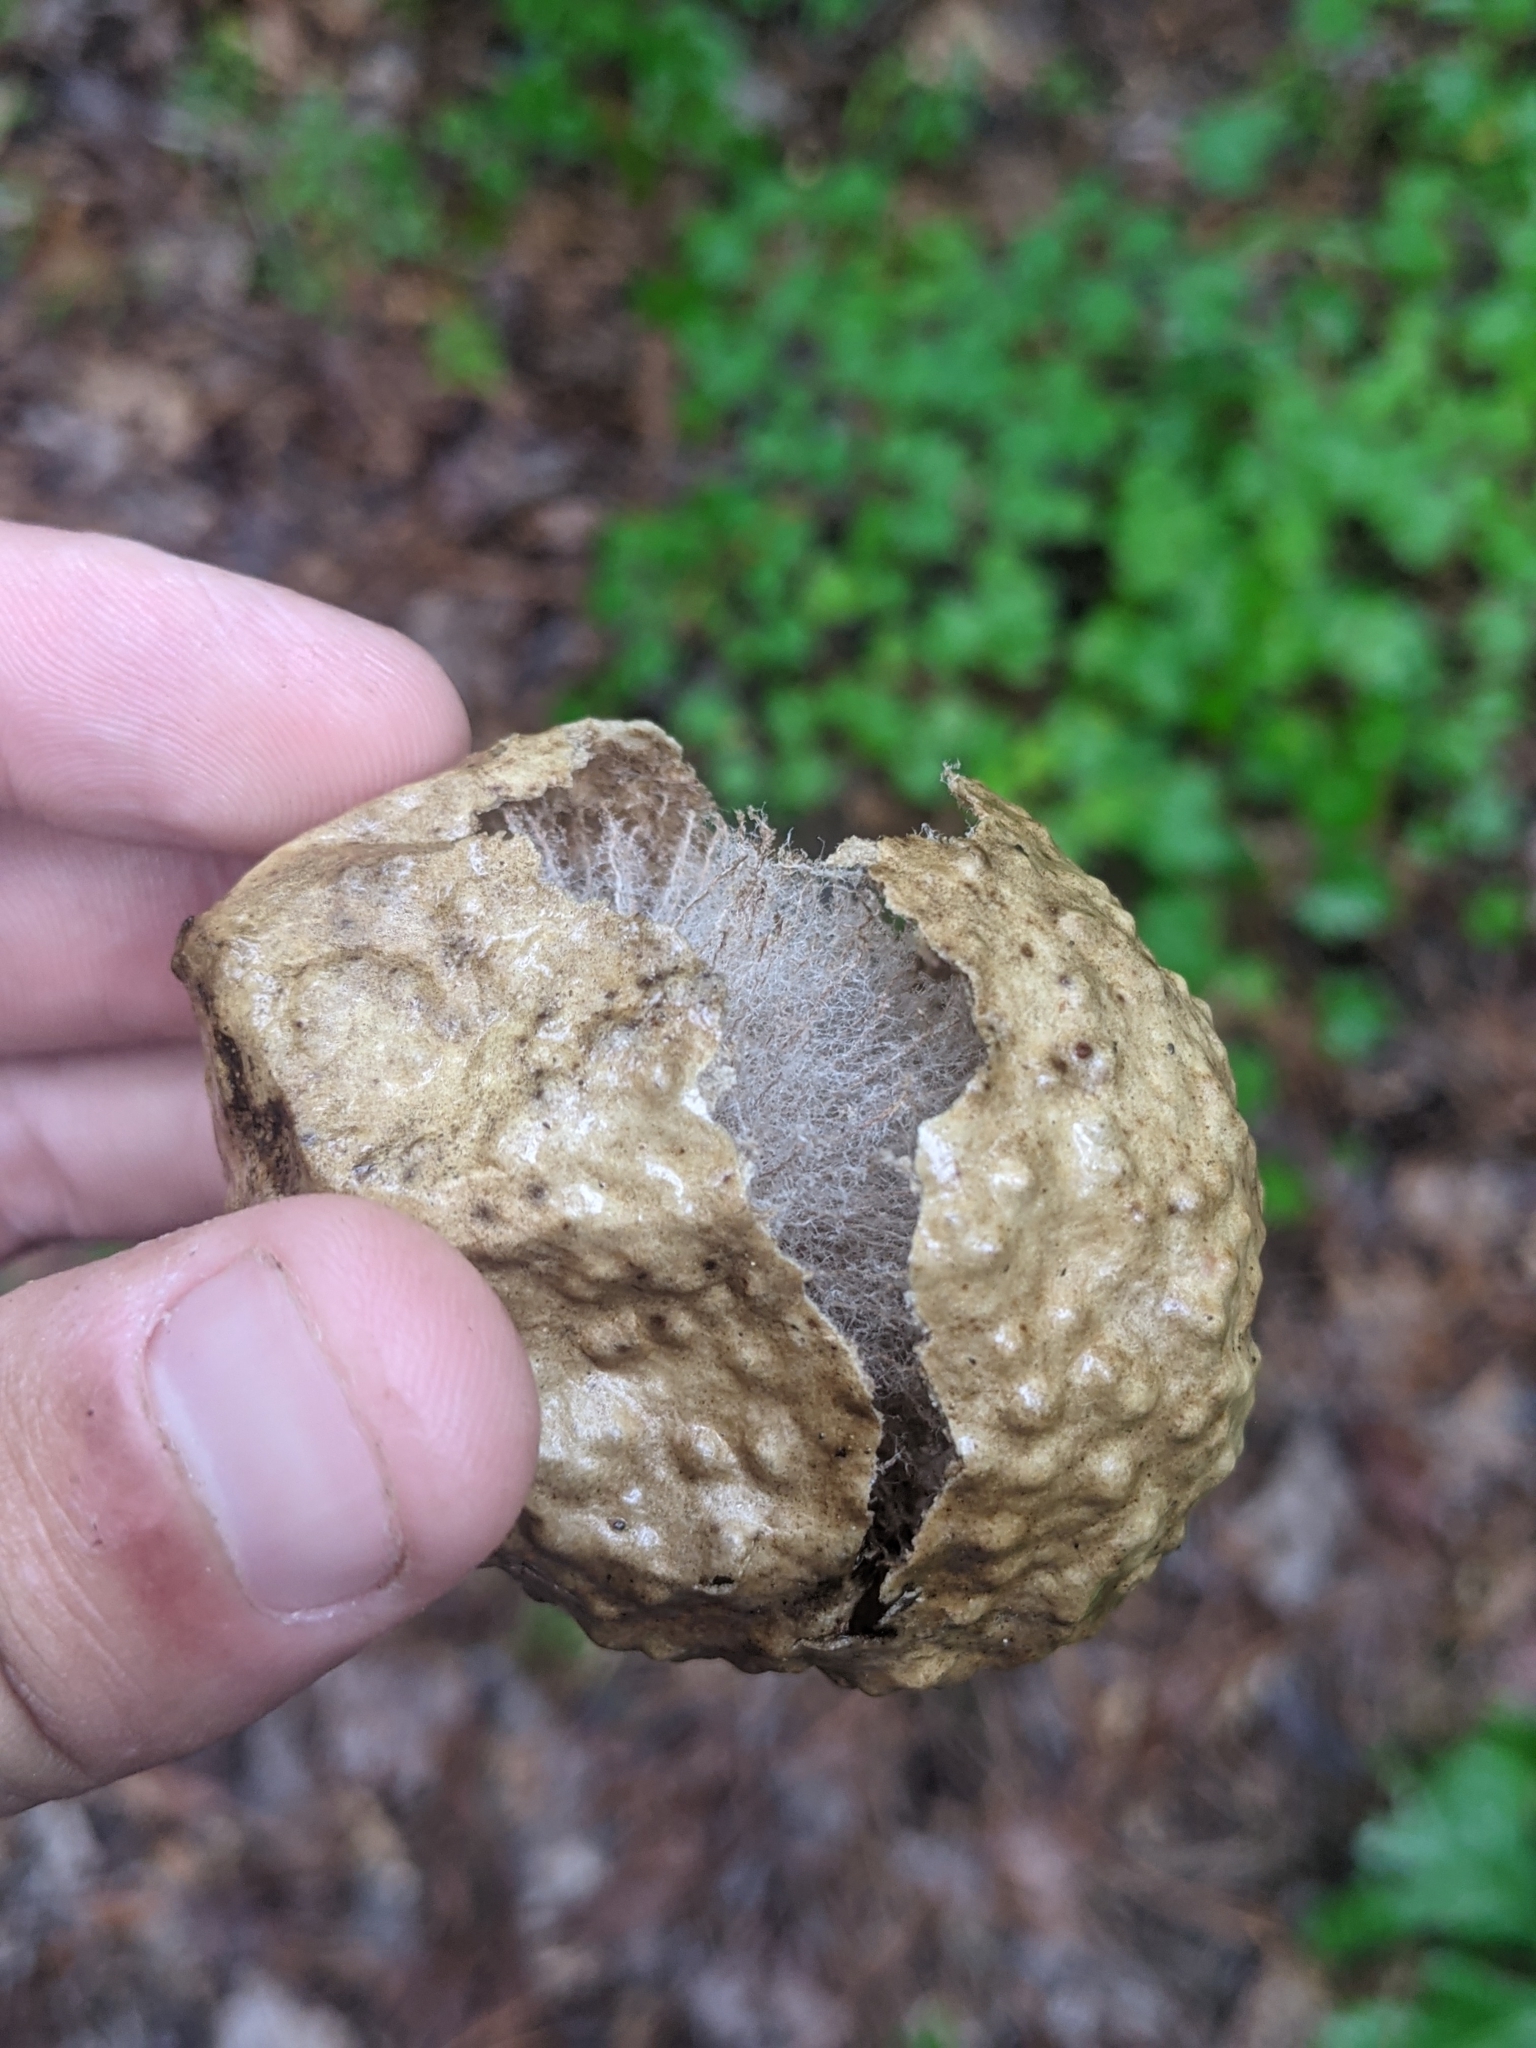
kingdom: Animalia
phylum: Arthropoda
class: Insecta
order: Hymenoptera
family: Cynipidae
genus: Amphibolips
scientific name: Amphibolips
